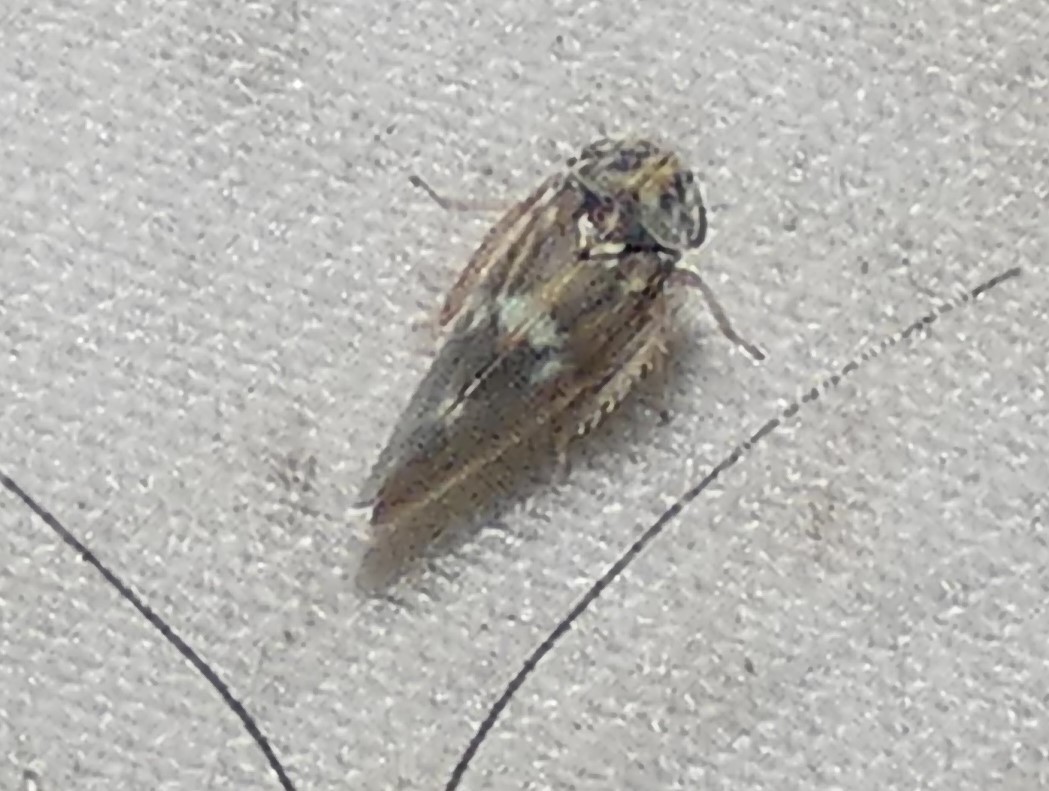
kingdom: Animalia
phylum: Arthropoda
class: Insecta
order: Hemiptera
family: Cicadellidae
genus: Agalliopsis
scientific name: Agalliopsis cervina
